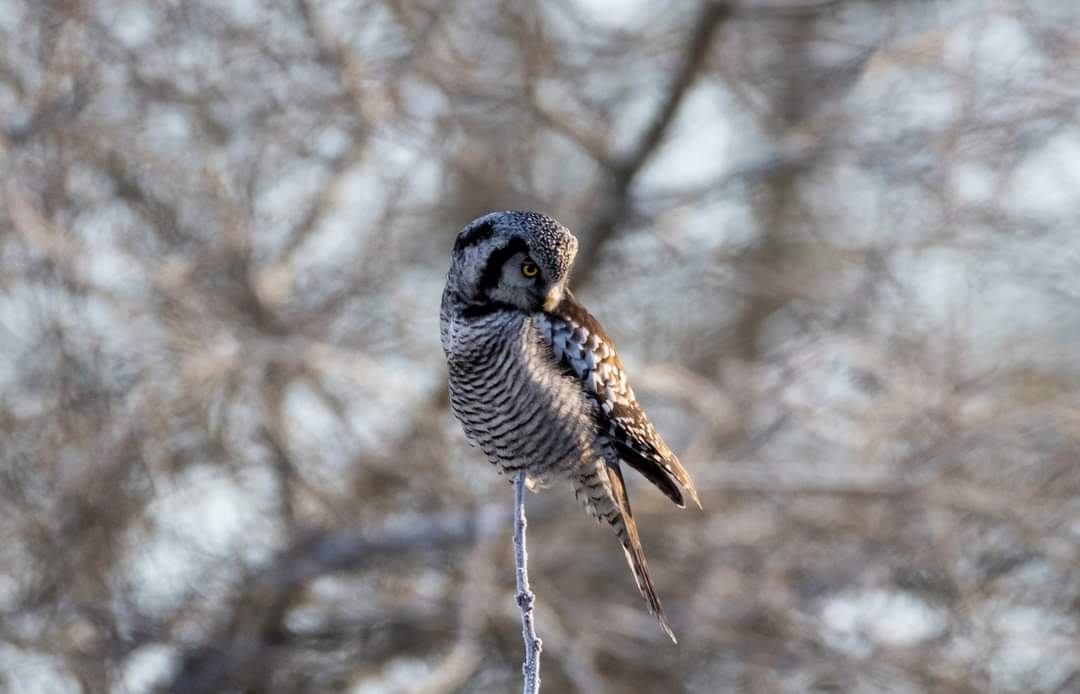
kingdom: Animalia
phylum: Chordata
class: Aves
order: Strigiformes
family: Strigidae
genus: Surnia
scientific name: Surnia ulula
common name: Northern hawk-owl
